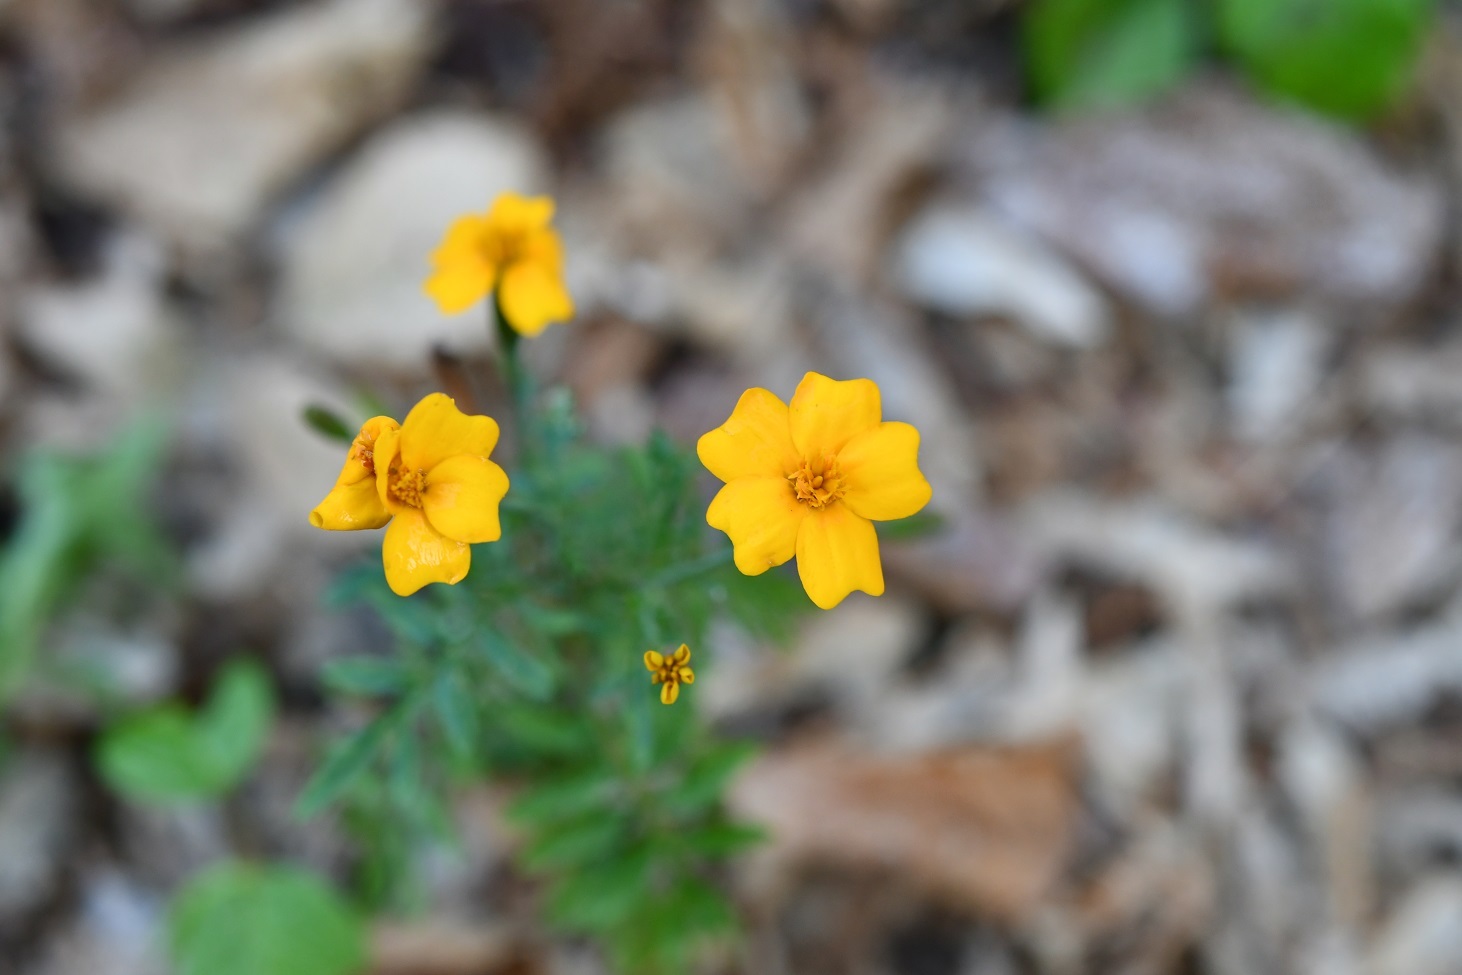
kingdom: Plantae
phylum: Tracheophyta
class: Magnoliopsida
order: Asterales
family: Asteraceae
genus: Tagetes
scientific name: Tagetes tenuifolia
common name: Signet marigold
